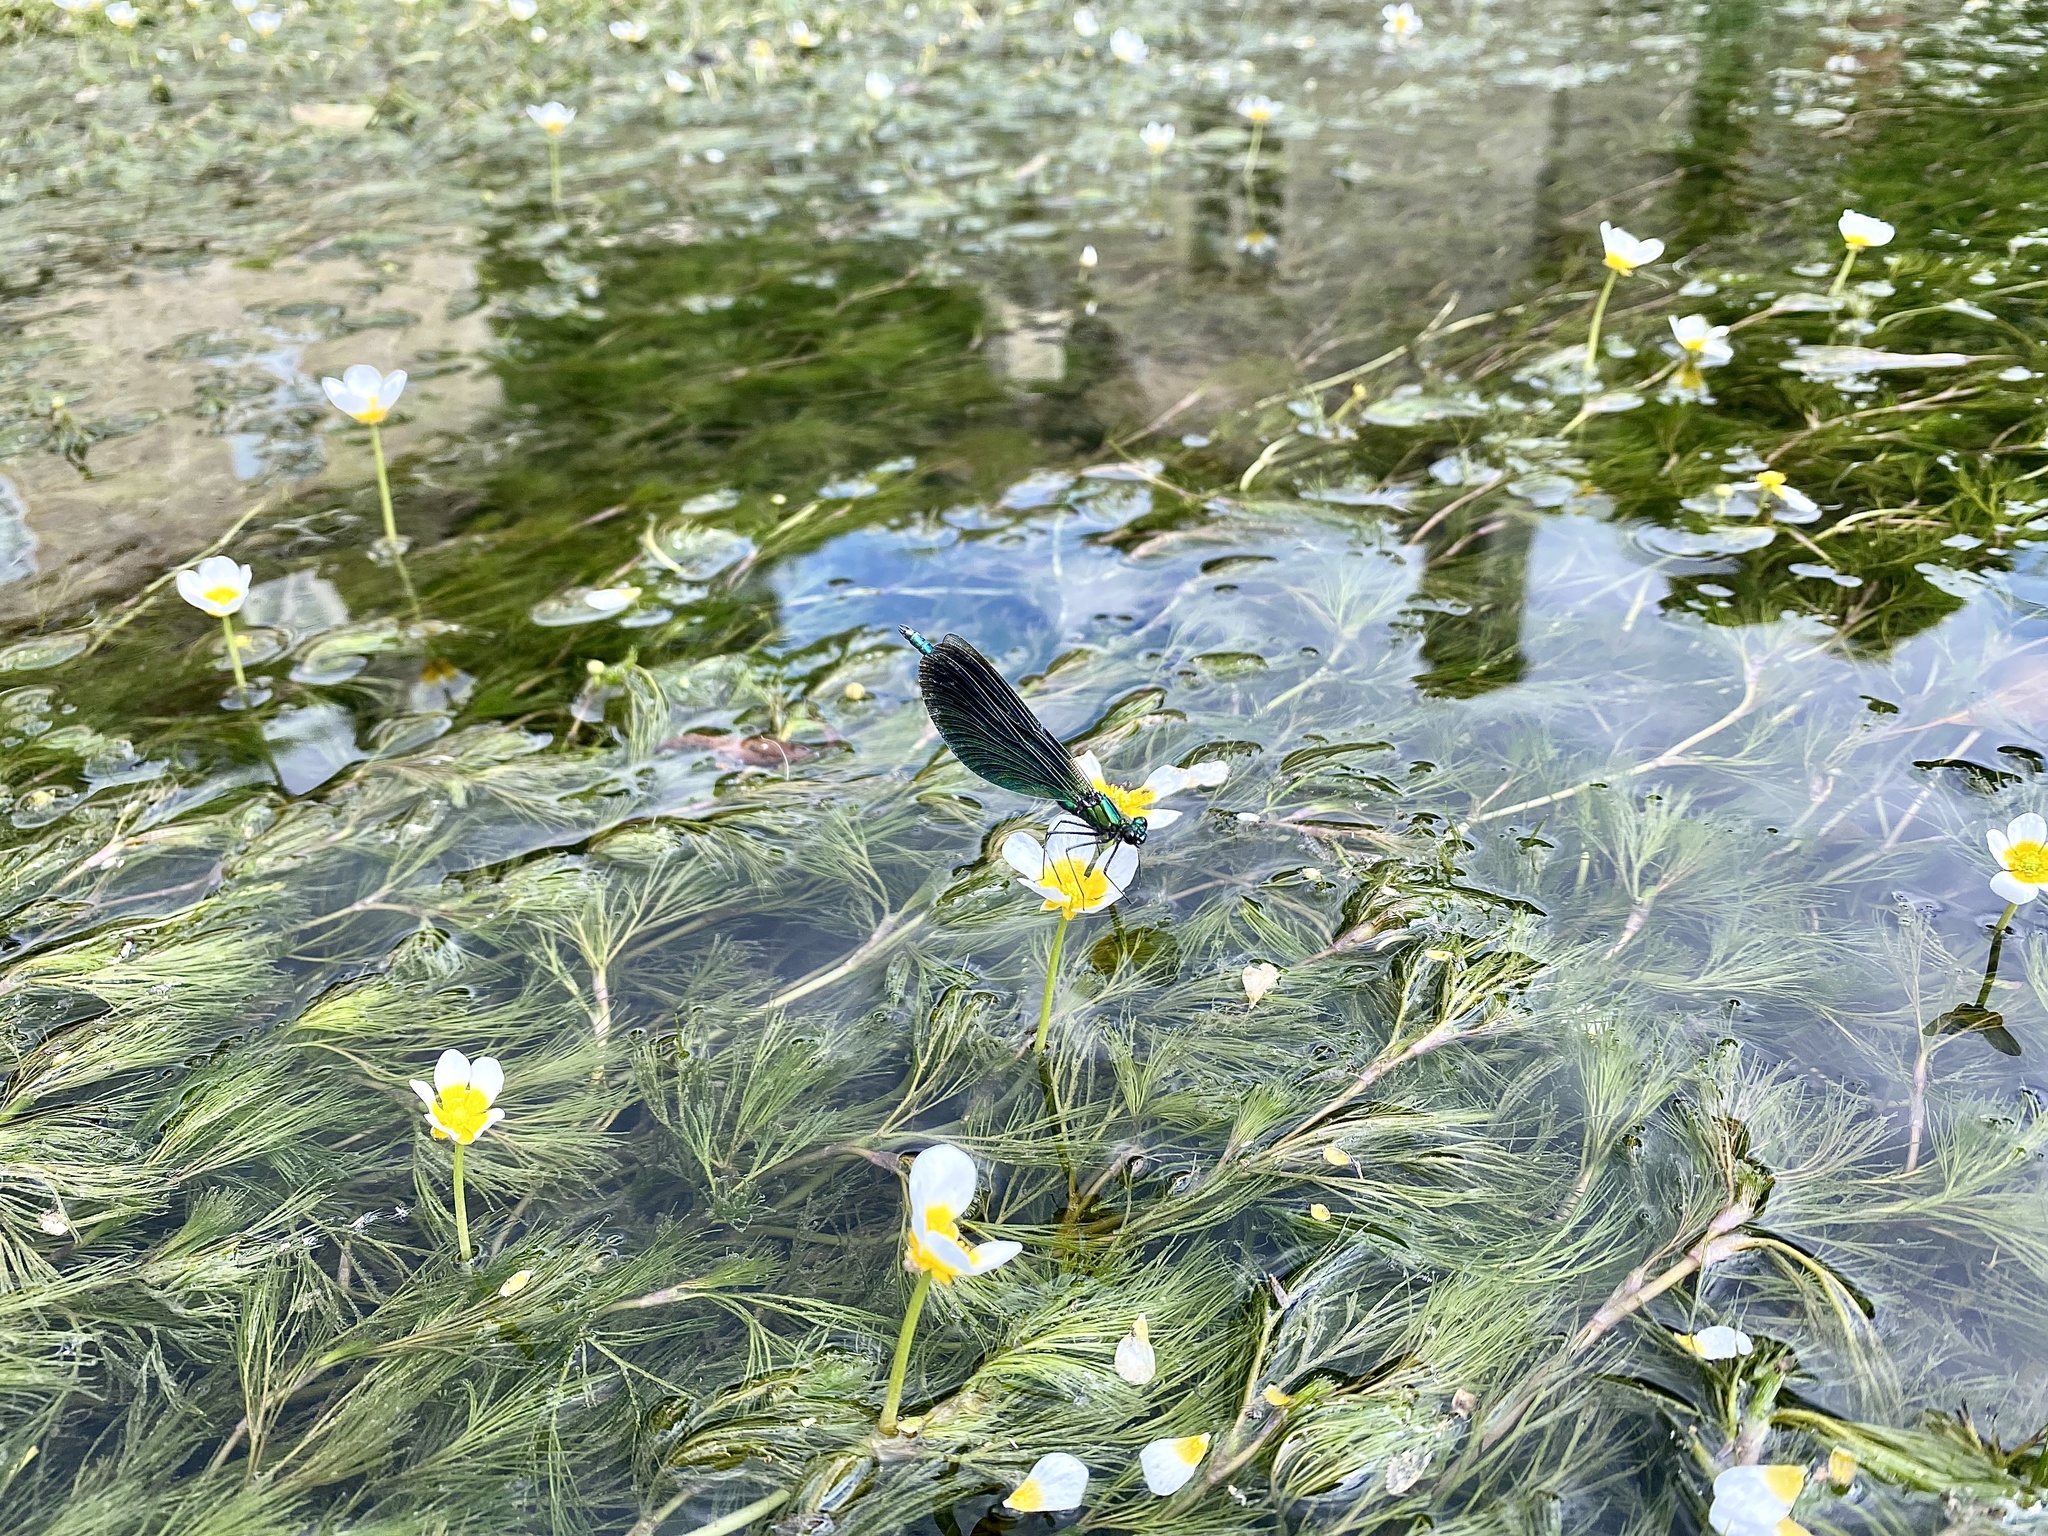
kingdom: Animalia
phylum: Arthropoda
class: Insecta
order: Odonata
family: Calopterygidae
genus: Calopteryx
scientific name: Calopteryx virgo
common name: Beautiful demoiselle
